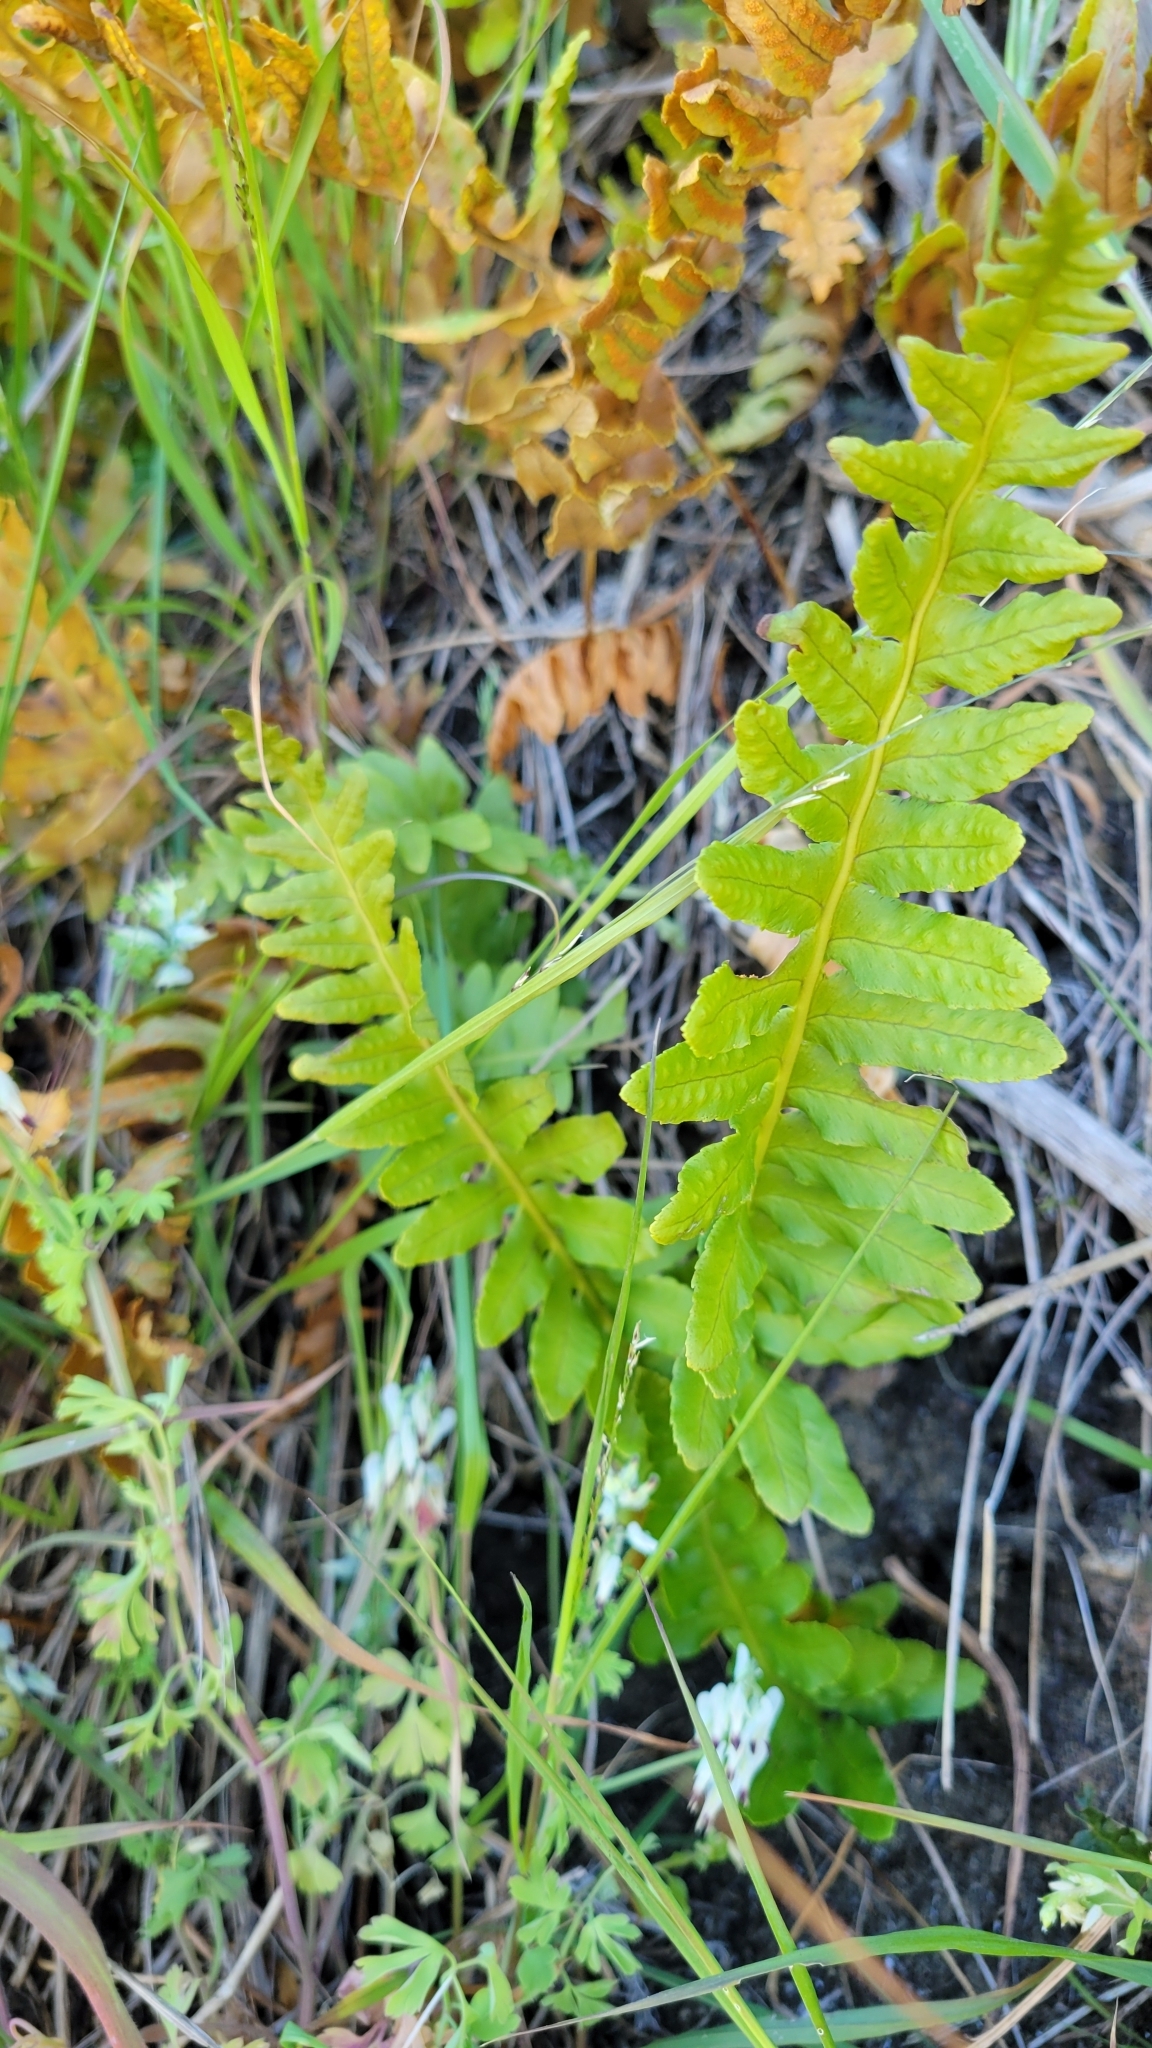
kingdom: Plantae
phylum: Tracheophyta
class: Polypodiopsida
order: Polypodiales
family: Polypodiaceae
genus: Polypodium
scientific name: Polypodium californicum
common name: California polypody
